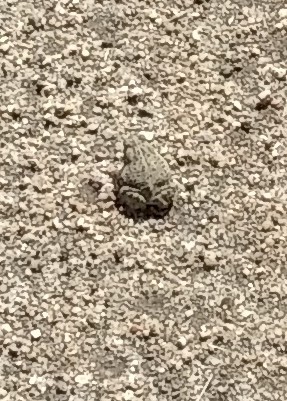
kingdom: Animalia
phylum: Chordata
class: Amphibia
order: Anura
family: Bufonidae
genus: Anaxyrus
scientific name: Anaxyrus woodhousii
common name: Woodhouse's toad
